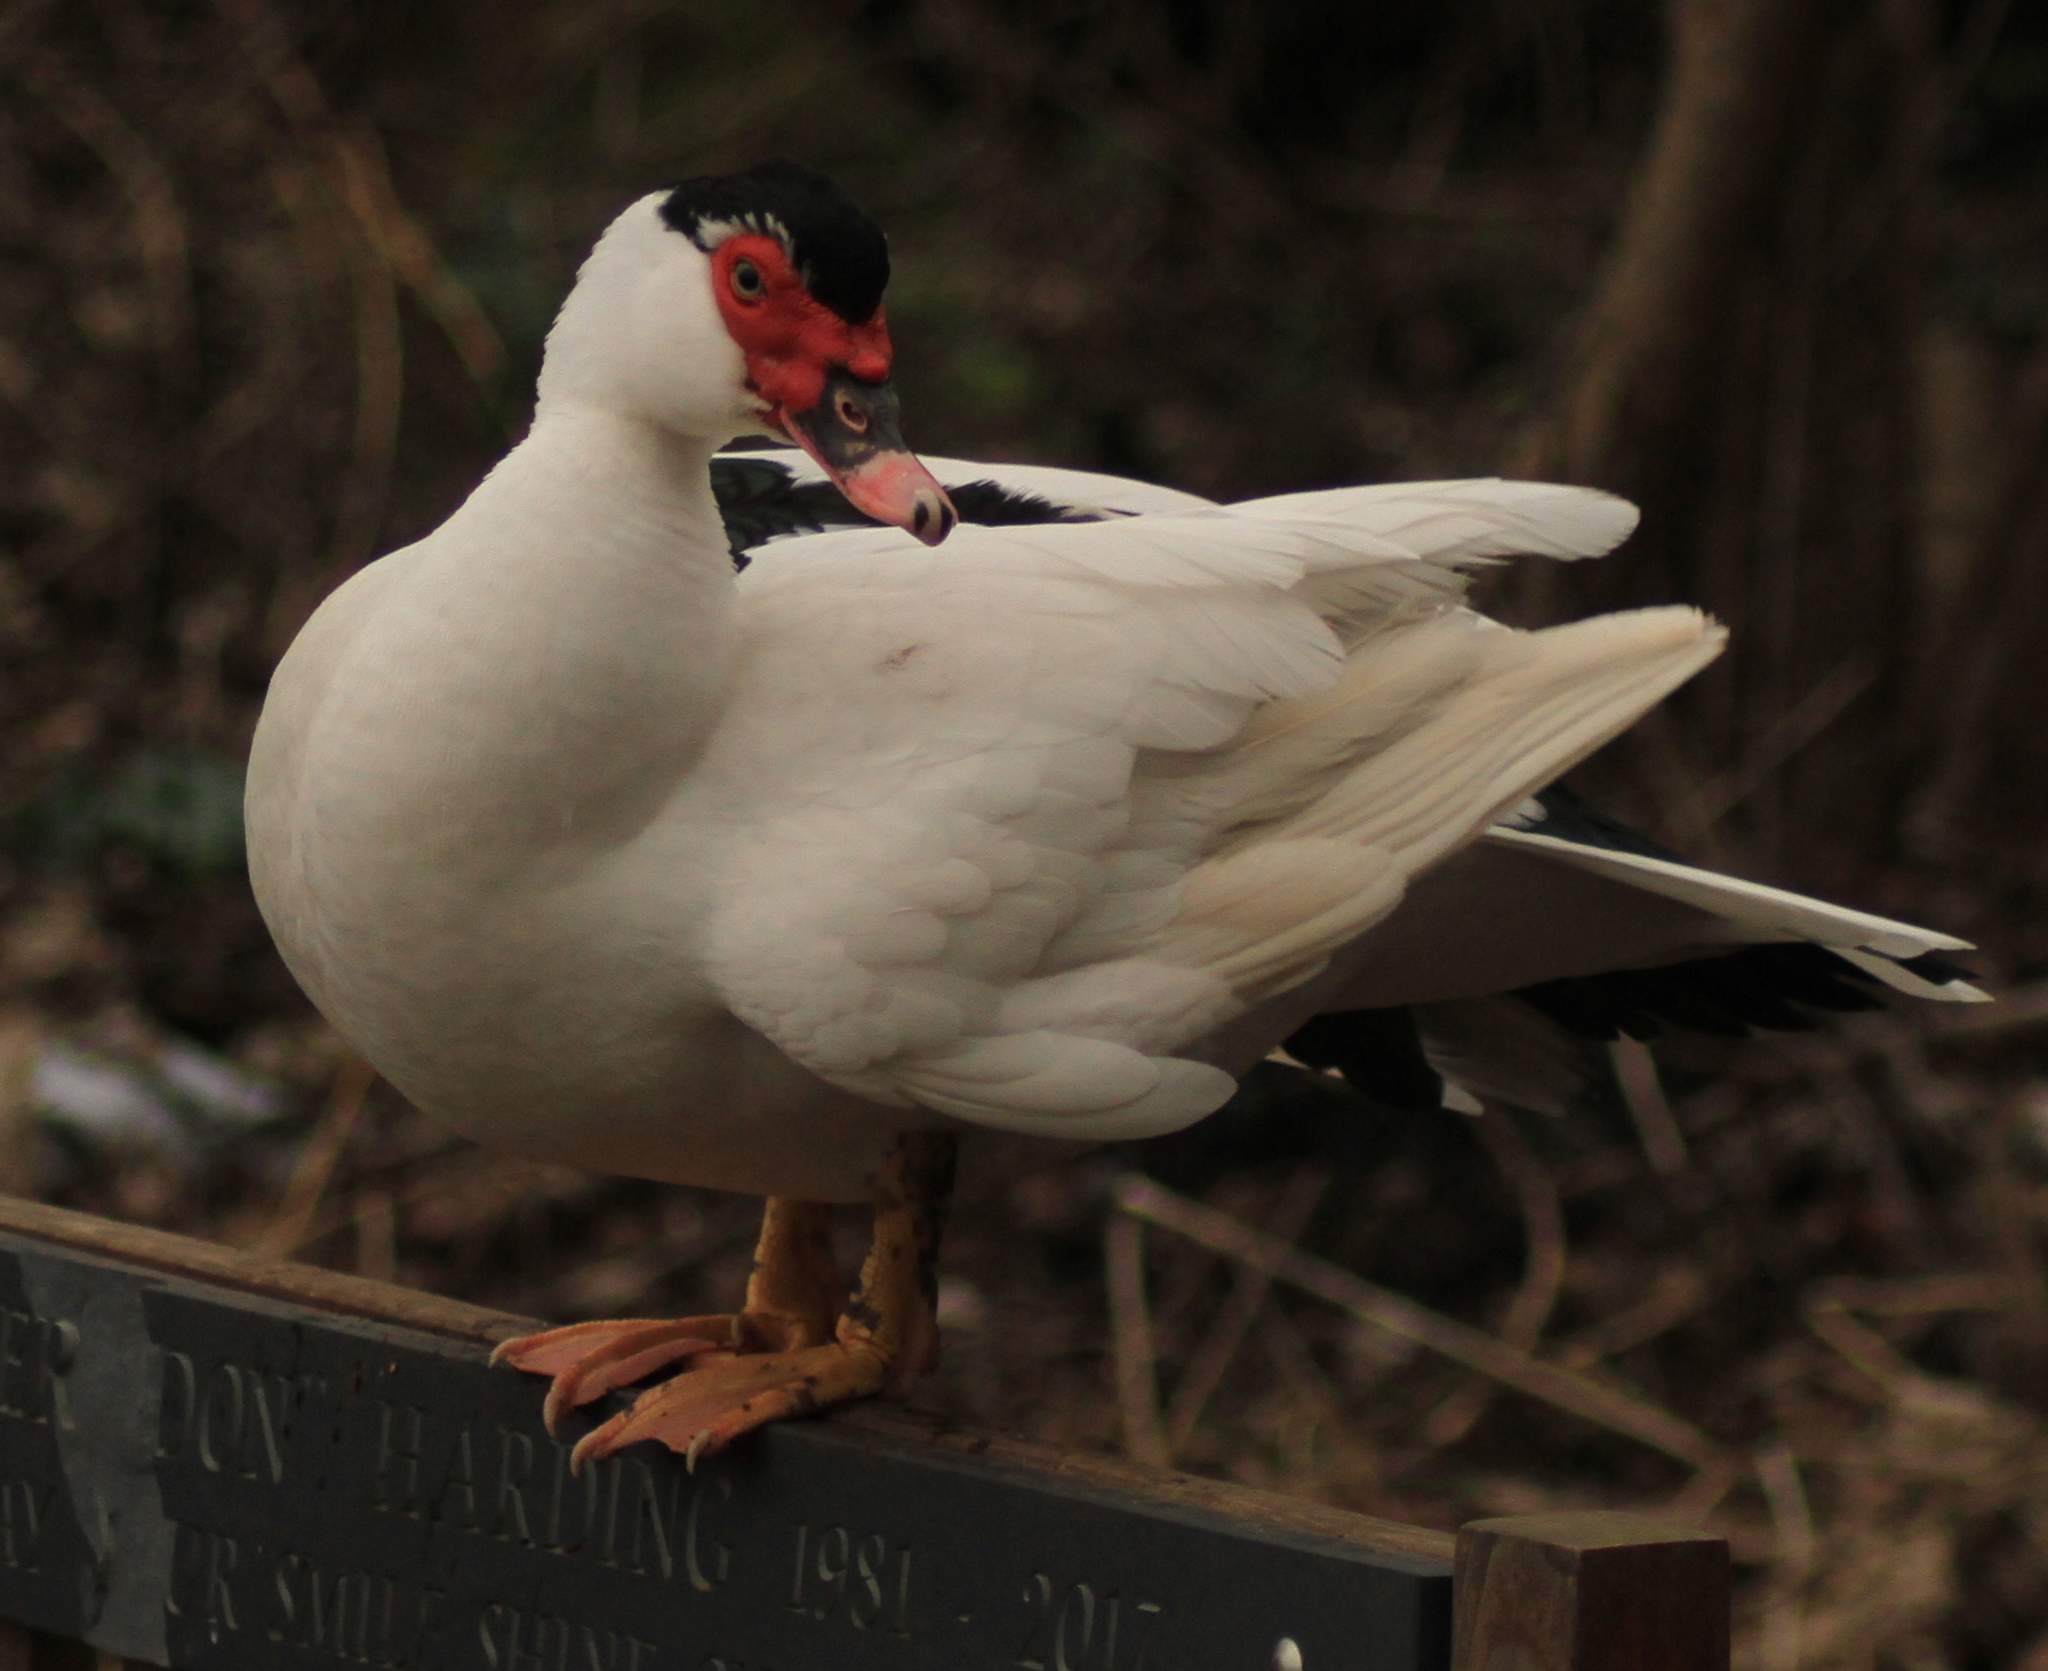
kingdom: Animalia
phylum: Chordata
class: Aves
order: Anseriformes
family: Anatidae
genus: Cairina
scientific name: Cairina moschata
